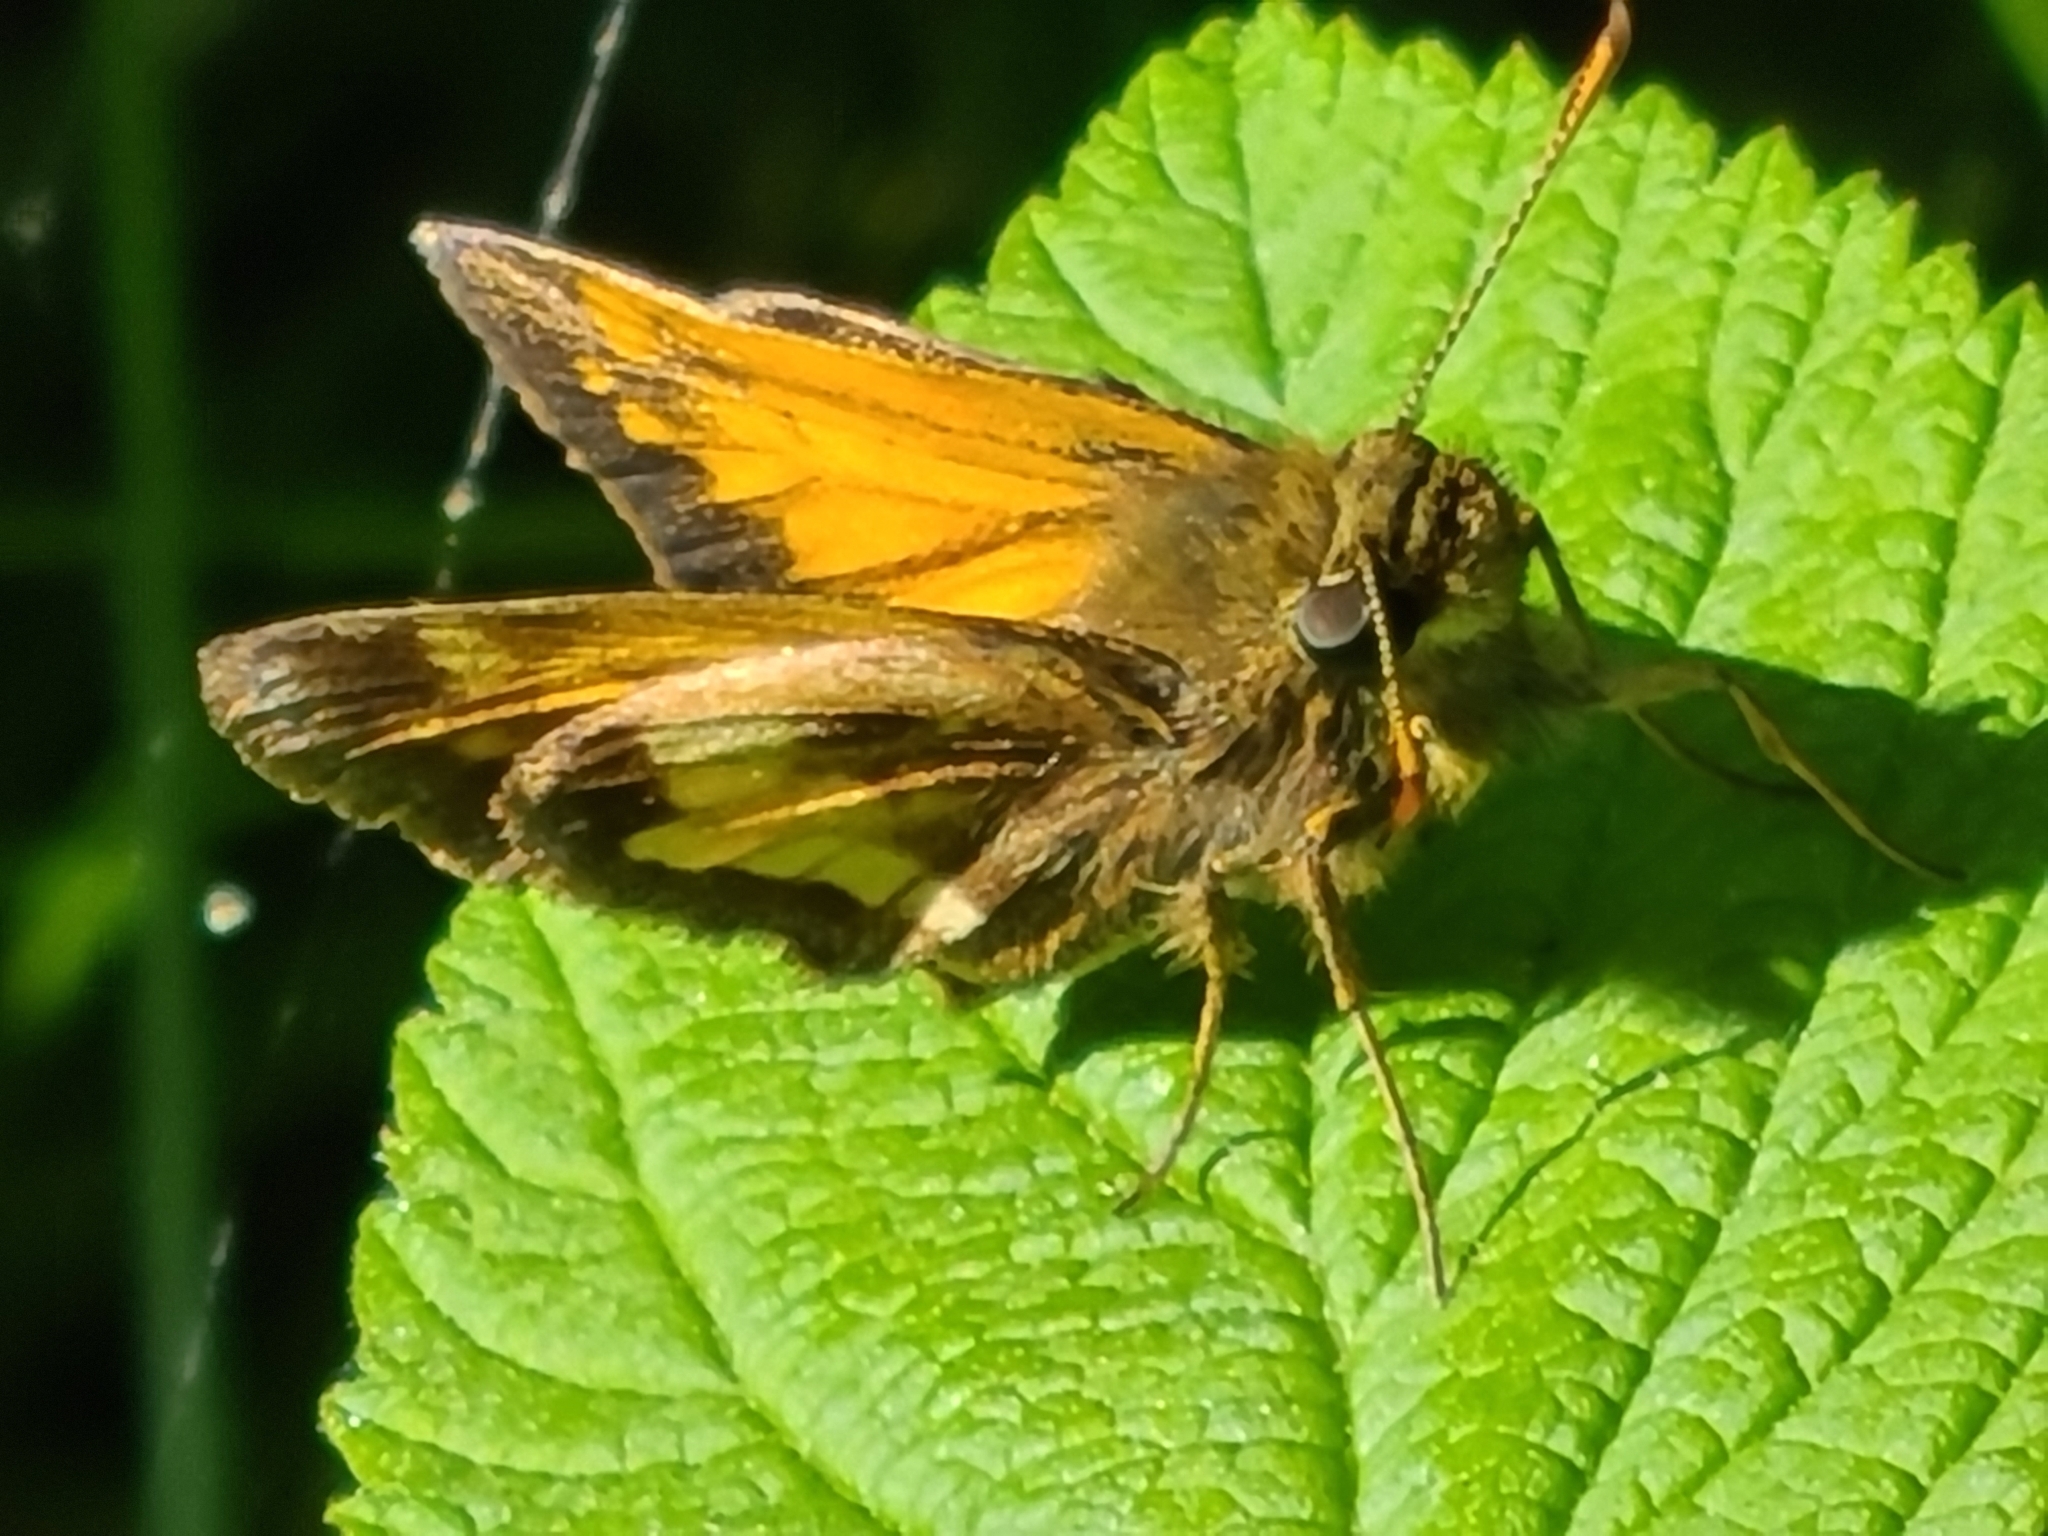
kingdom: Animalia
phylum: Arthropoda
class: Insecta
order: Lepidoptera
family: Hesperiidae
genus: Lon
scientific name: Lon hobomok
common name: Hobomok skipper
